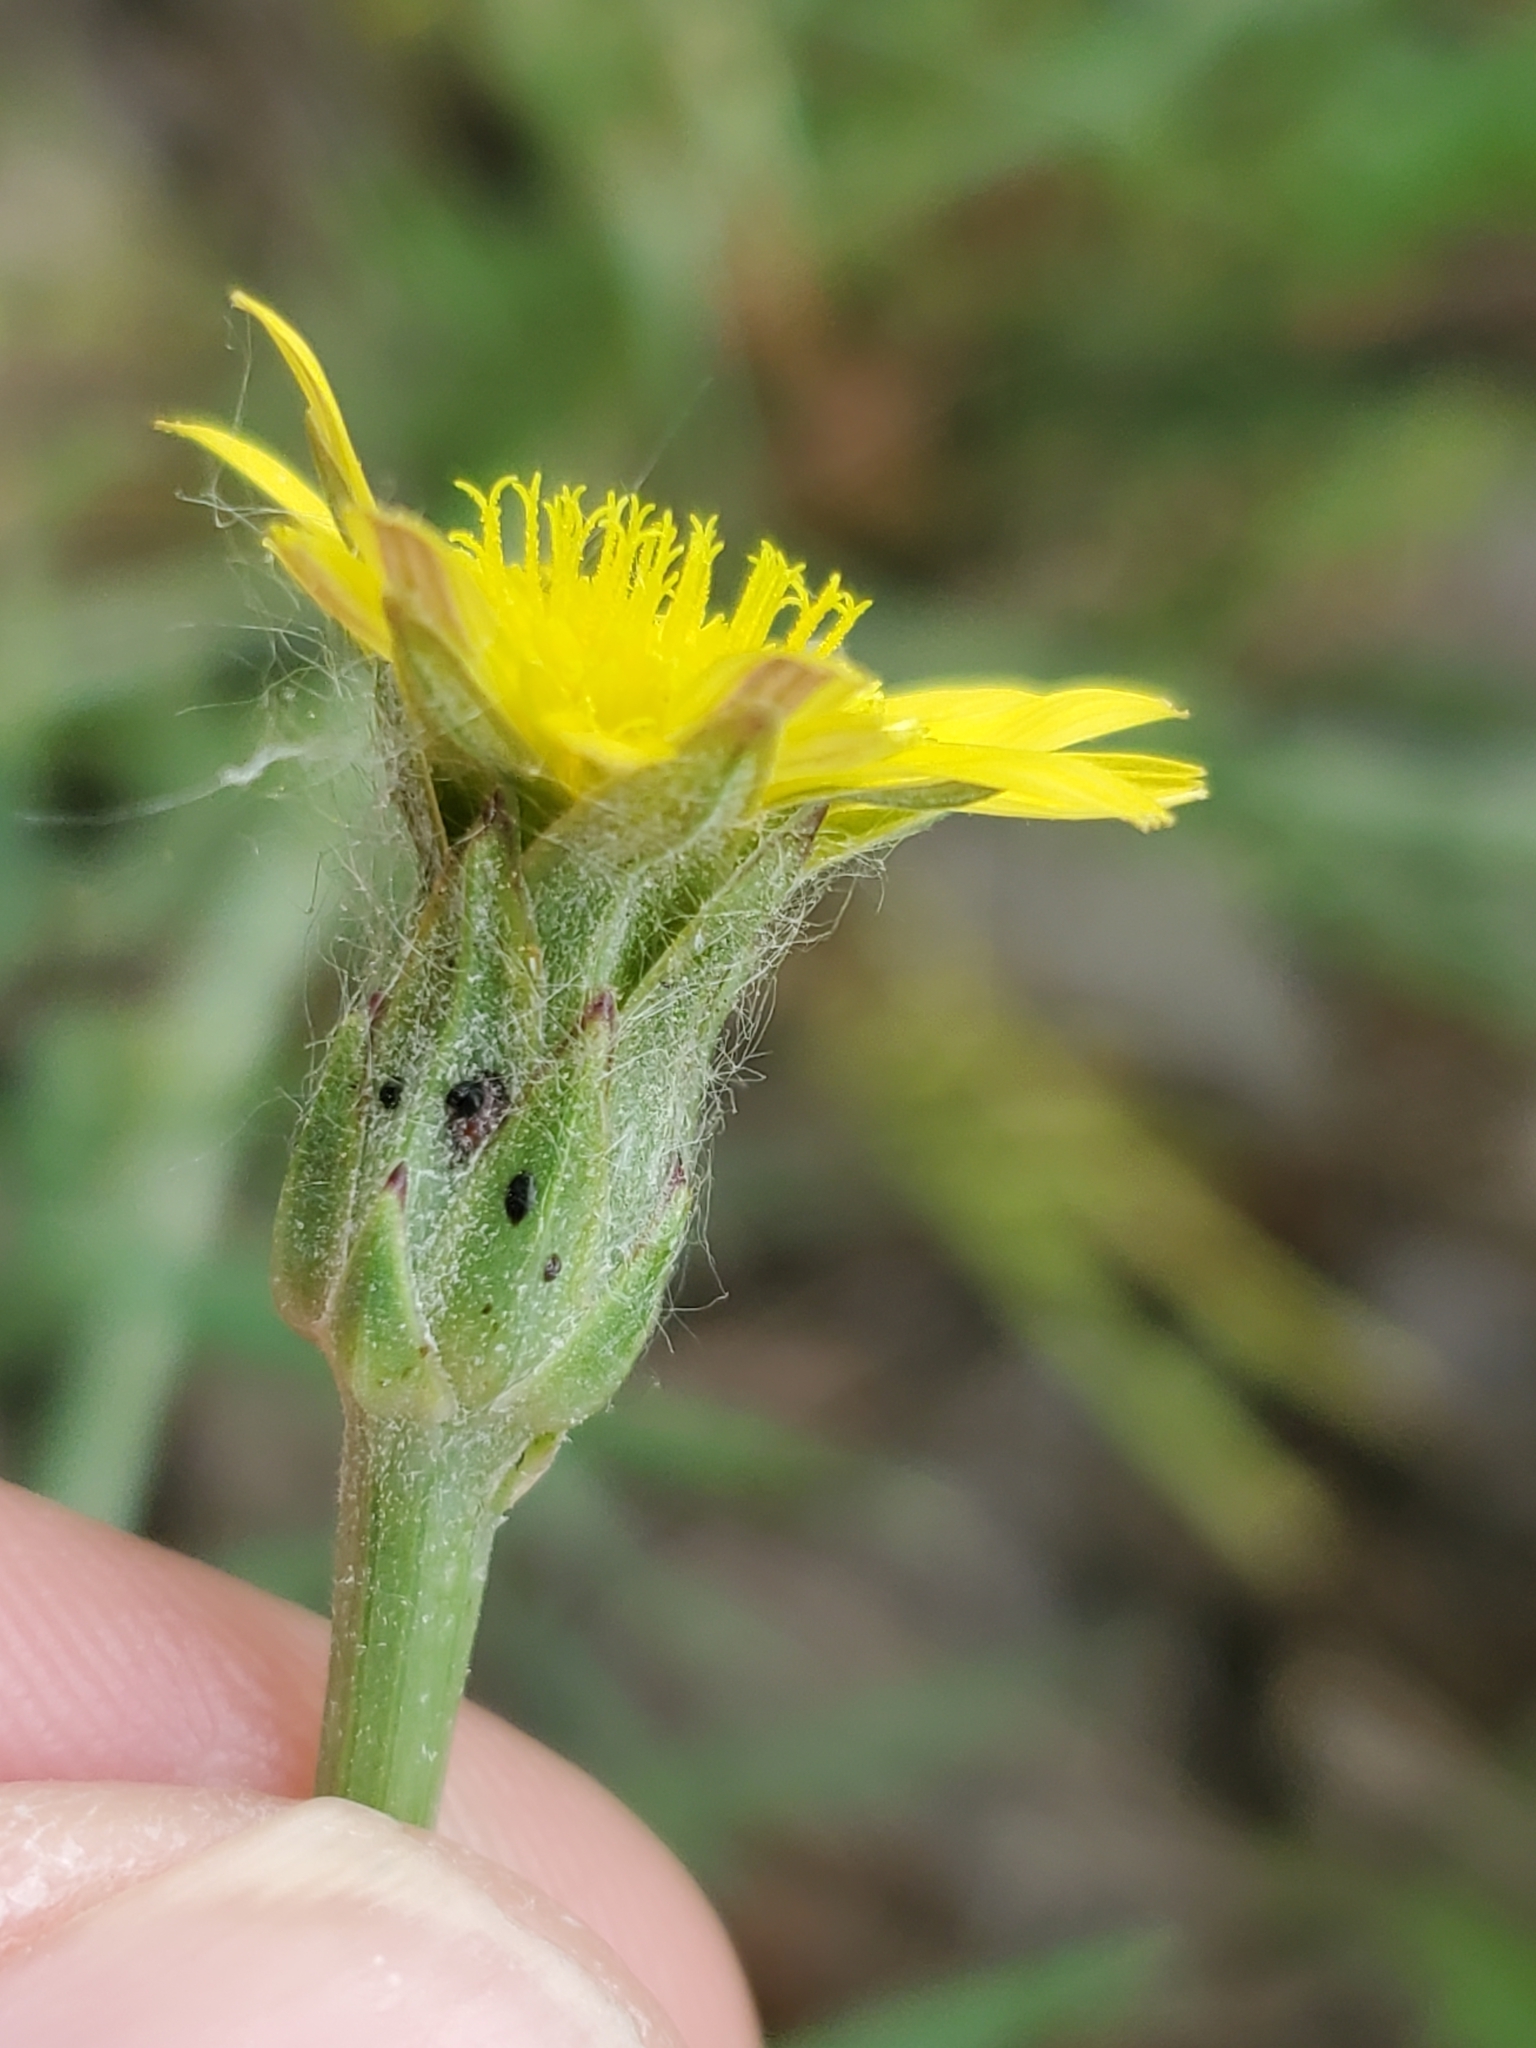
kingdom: Plantae
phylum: Tracheophyta
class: Magnoliopsida
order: Asterales
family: Asteraceae
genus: Scorzonera
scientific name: Scorzonera laciniata
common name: Cutleaf vipergrass
